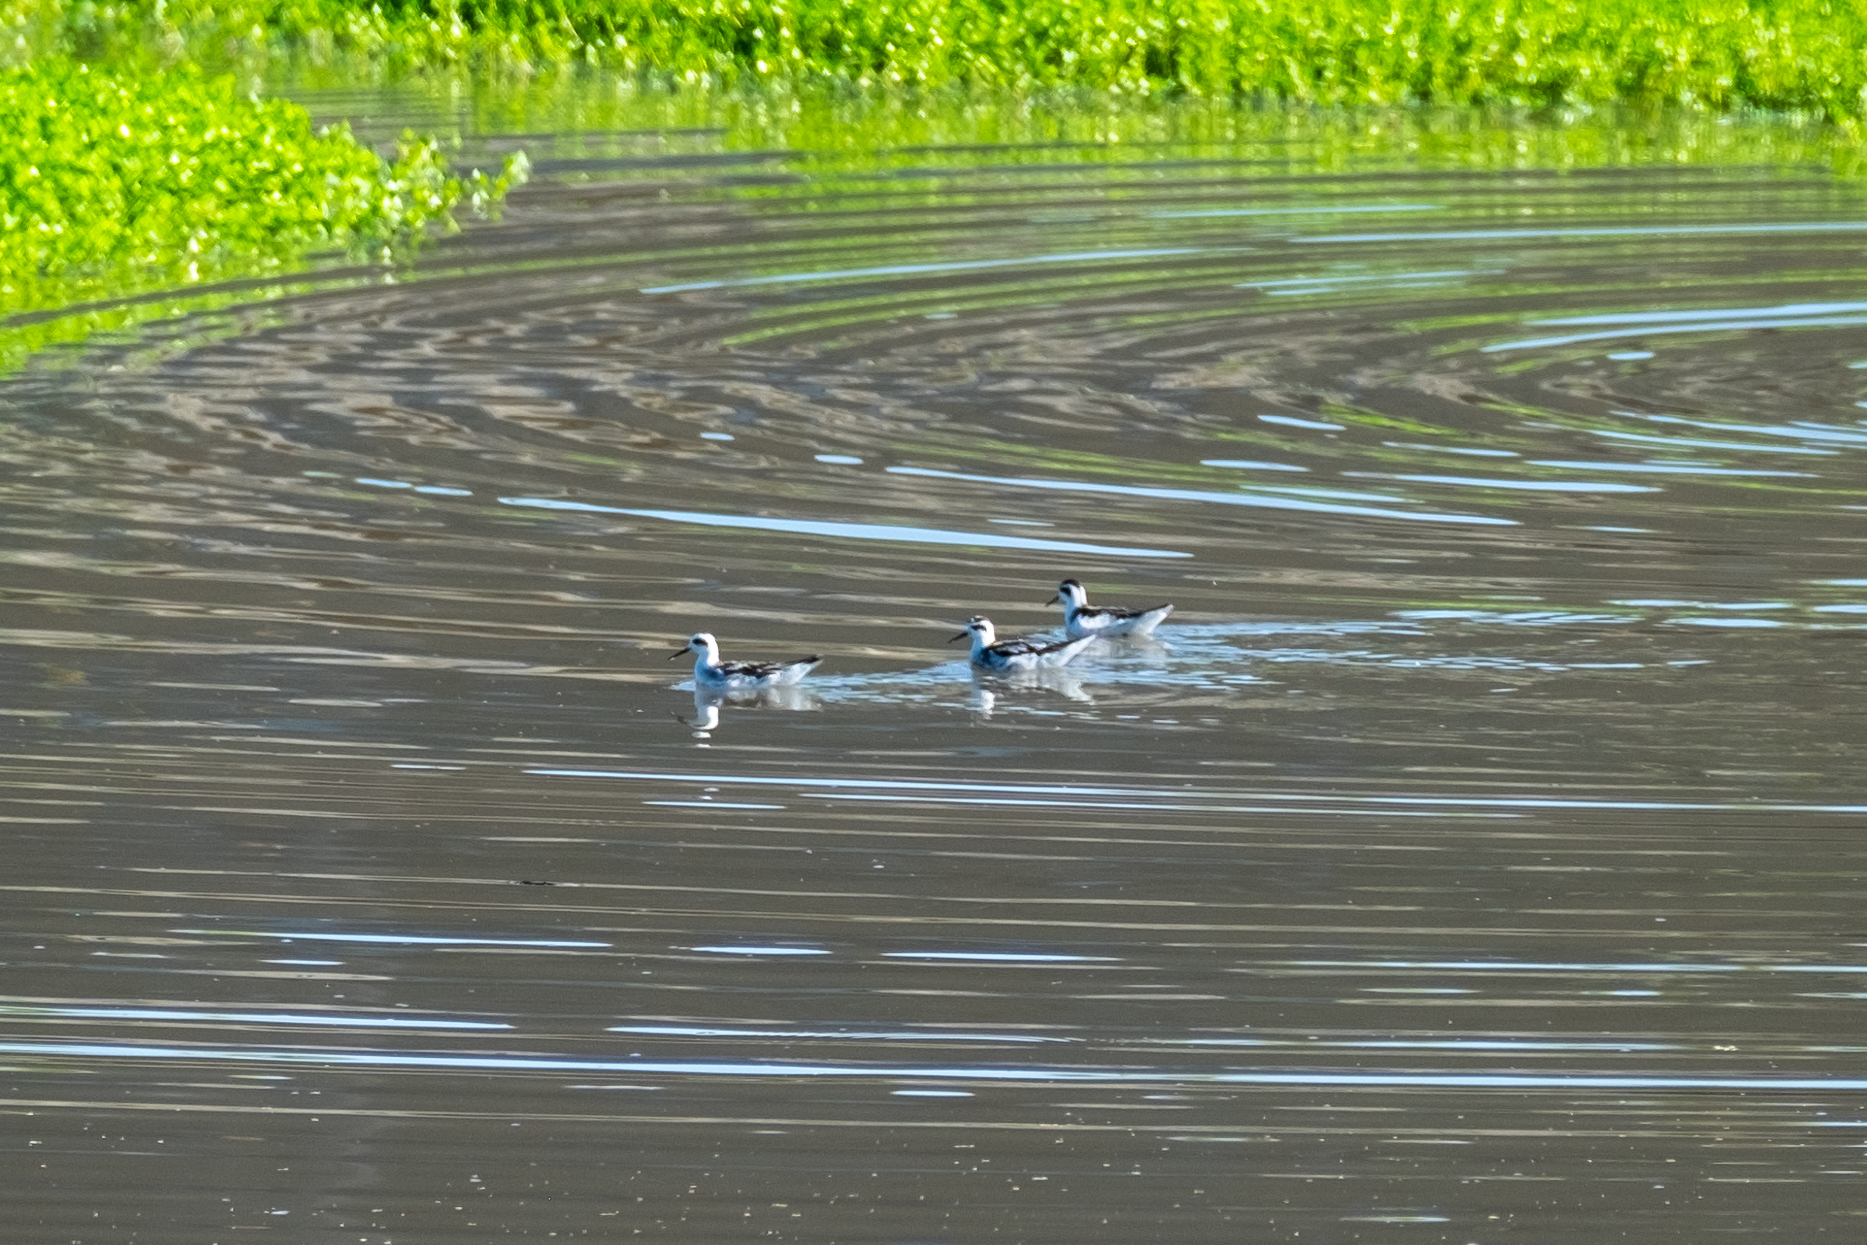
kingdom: Animalia
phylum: Chordata
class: Aves
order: Charadriiformes
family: Scolopacidae
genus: Phalaropus
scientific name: Phalaropus lobatus
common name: Red-necked phalarope
